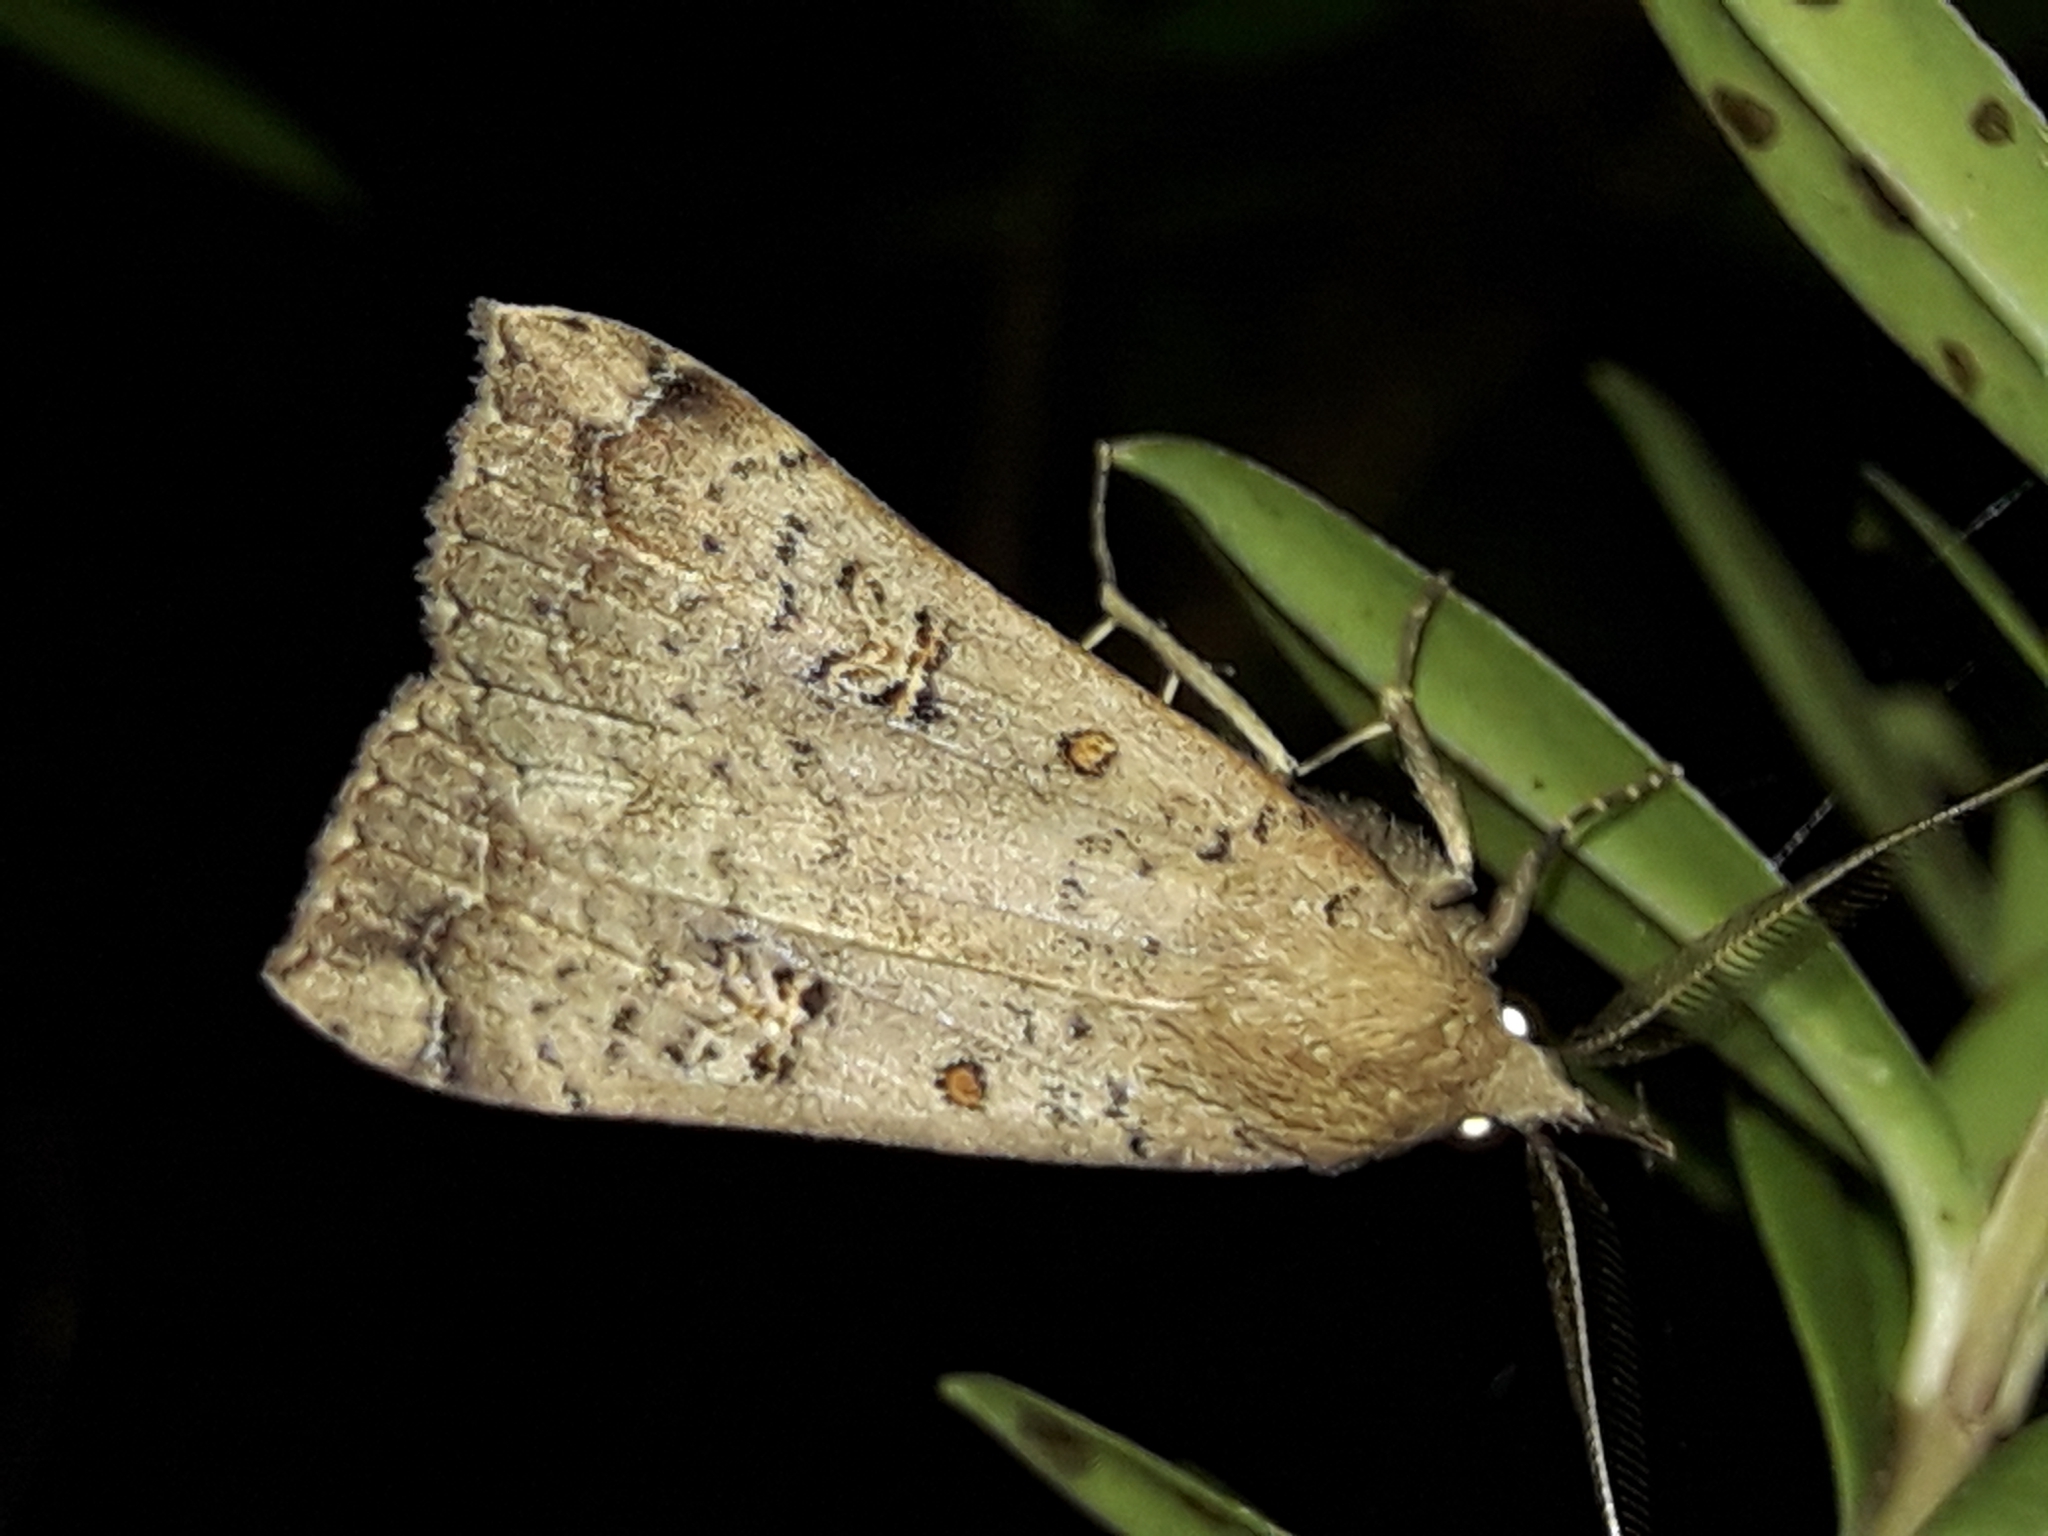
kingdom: Animalia
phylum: Arthropoda
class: Insecta
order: Lepidoptera
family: Erebidae
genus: Rhapsa
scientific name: Rhapsa scotosialis
